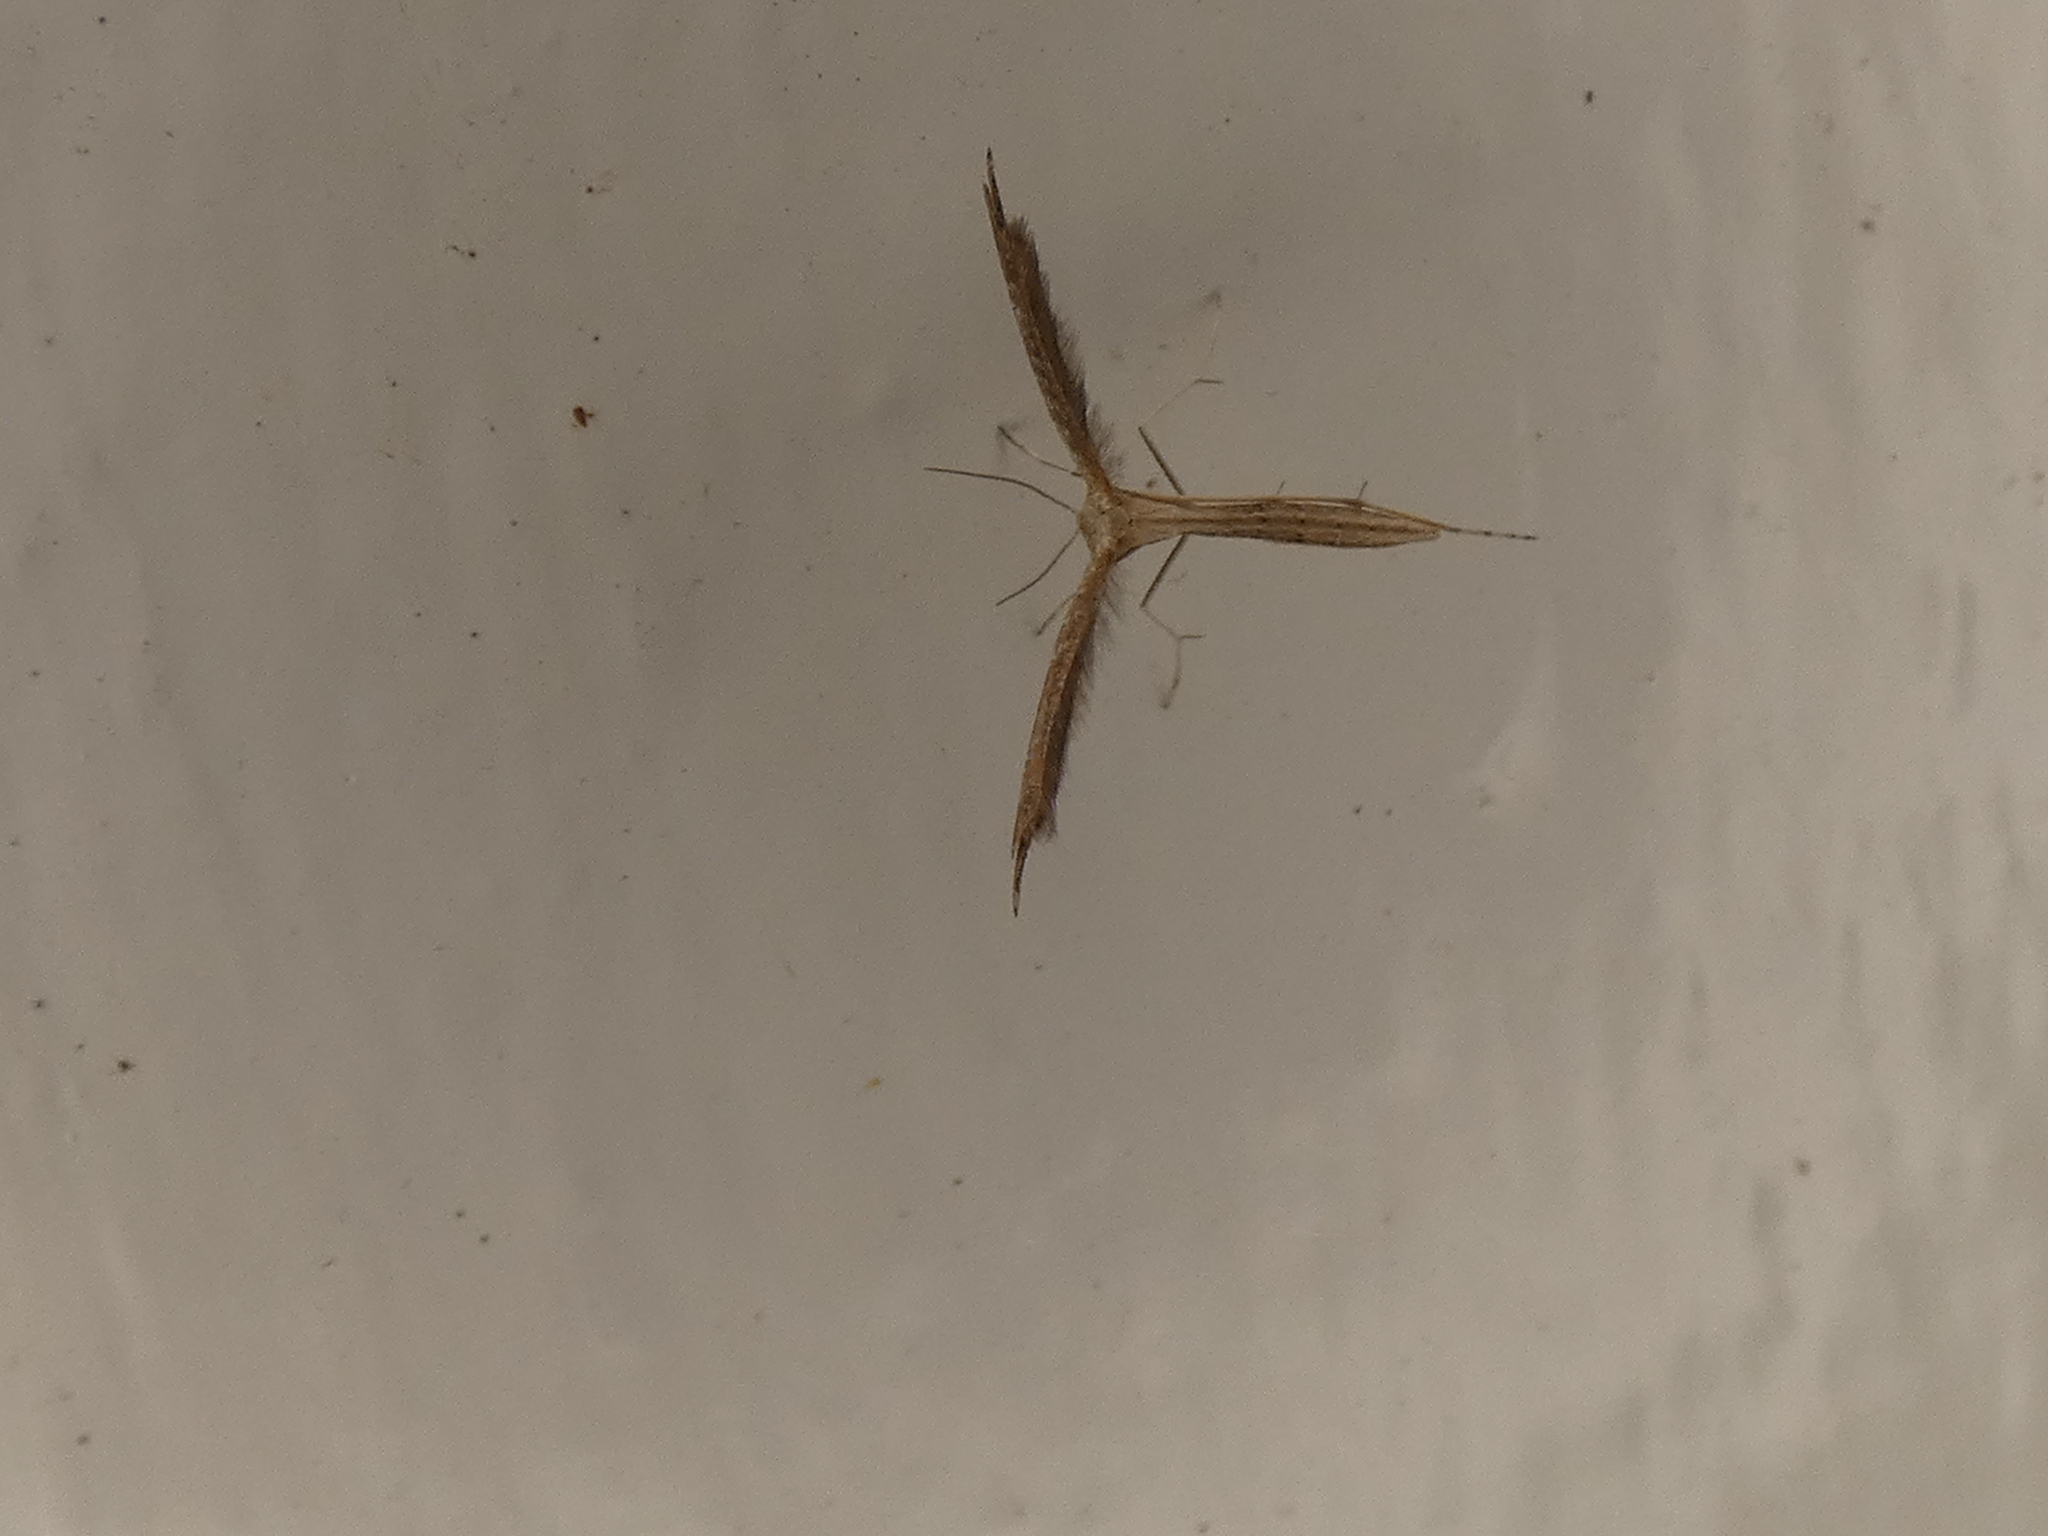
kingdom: Animalia
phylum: Arthropoda
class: Insecta
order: Lepidoptera
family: Pterophoridae
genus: Lioptilodes
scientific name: Lioptilodes albistriolatus
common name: Moth
